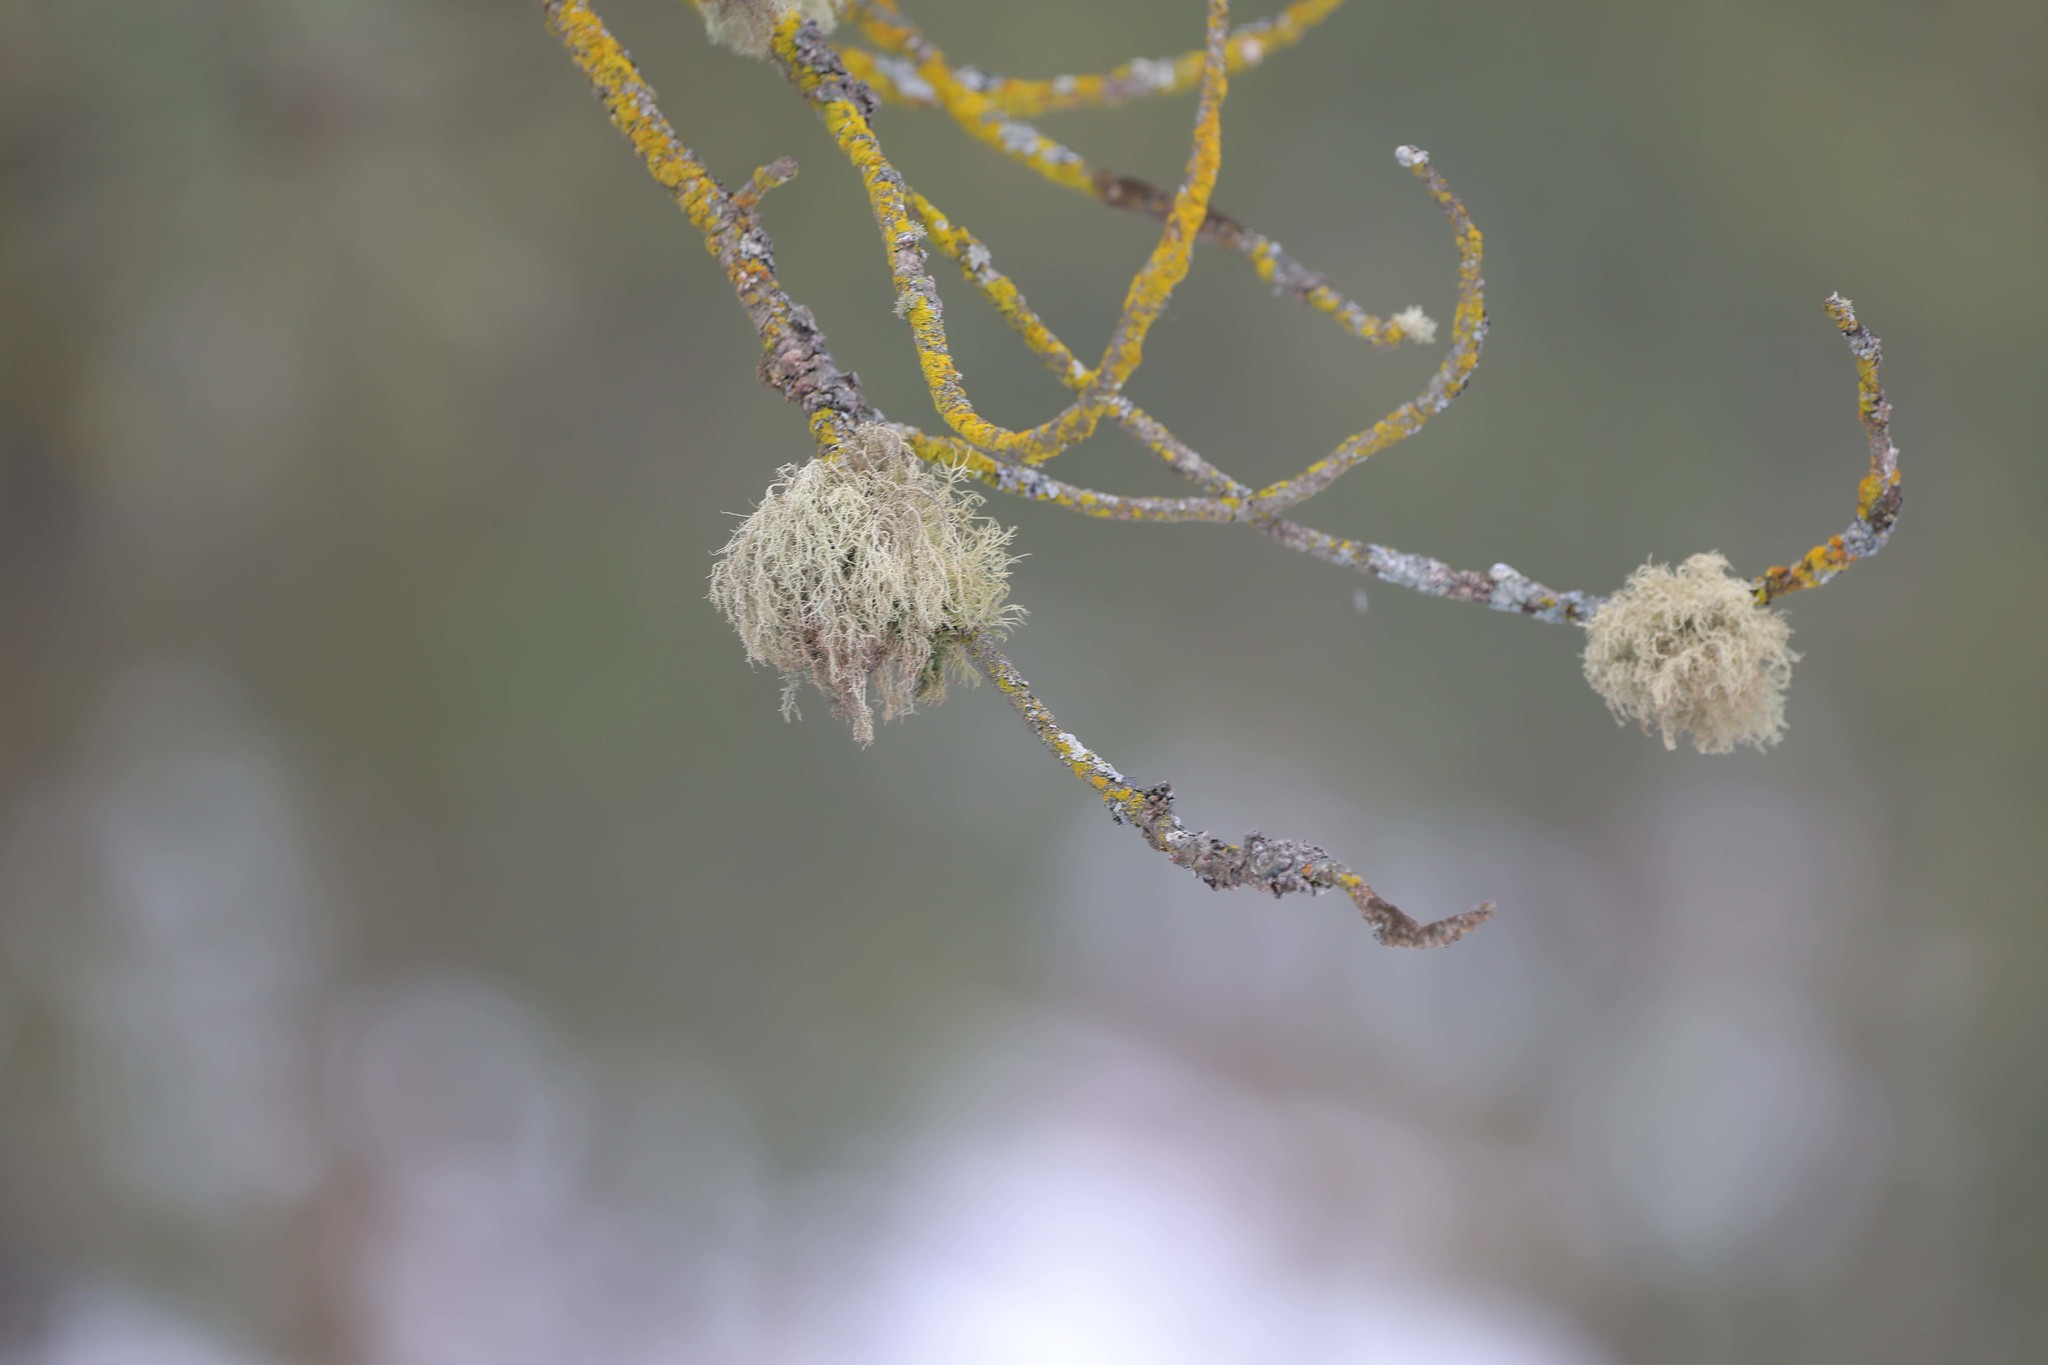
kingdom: Fungi
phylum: Ascomycota
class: Lecanoromycetes
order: Lecanorales
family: Parmeliaceae
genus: Usnea
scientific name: Usnea hirta
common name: Bristly beard lichen
